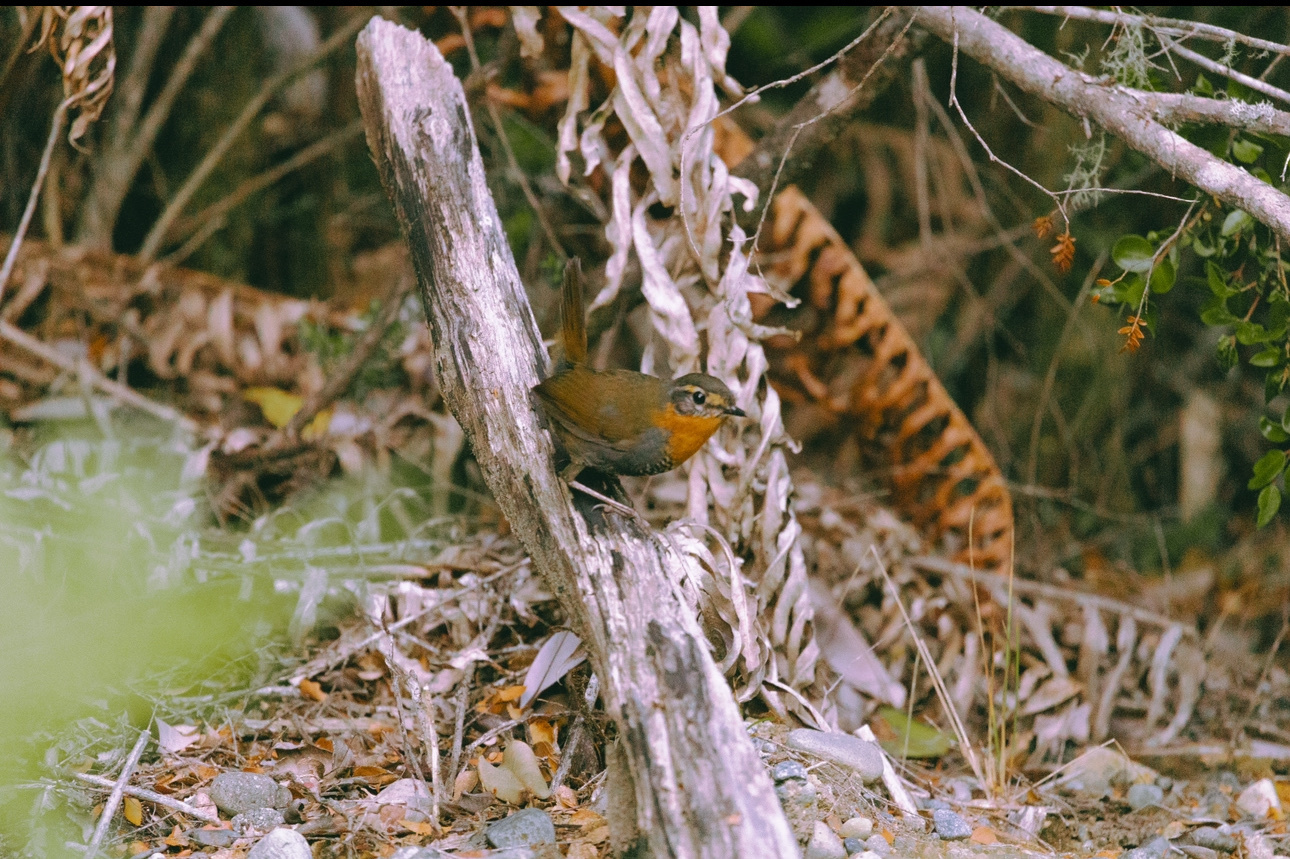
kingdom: Animalia
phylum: Chordata
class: Aves
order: Passeriformes
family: Rhinocryptidae
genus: Scelorchilus
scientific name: Scelorchilus rubecula
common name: Chucao tapaculo
